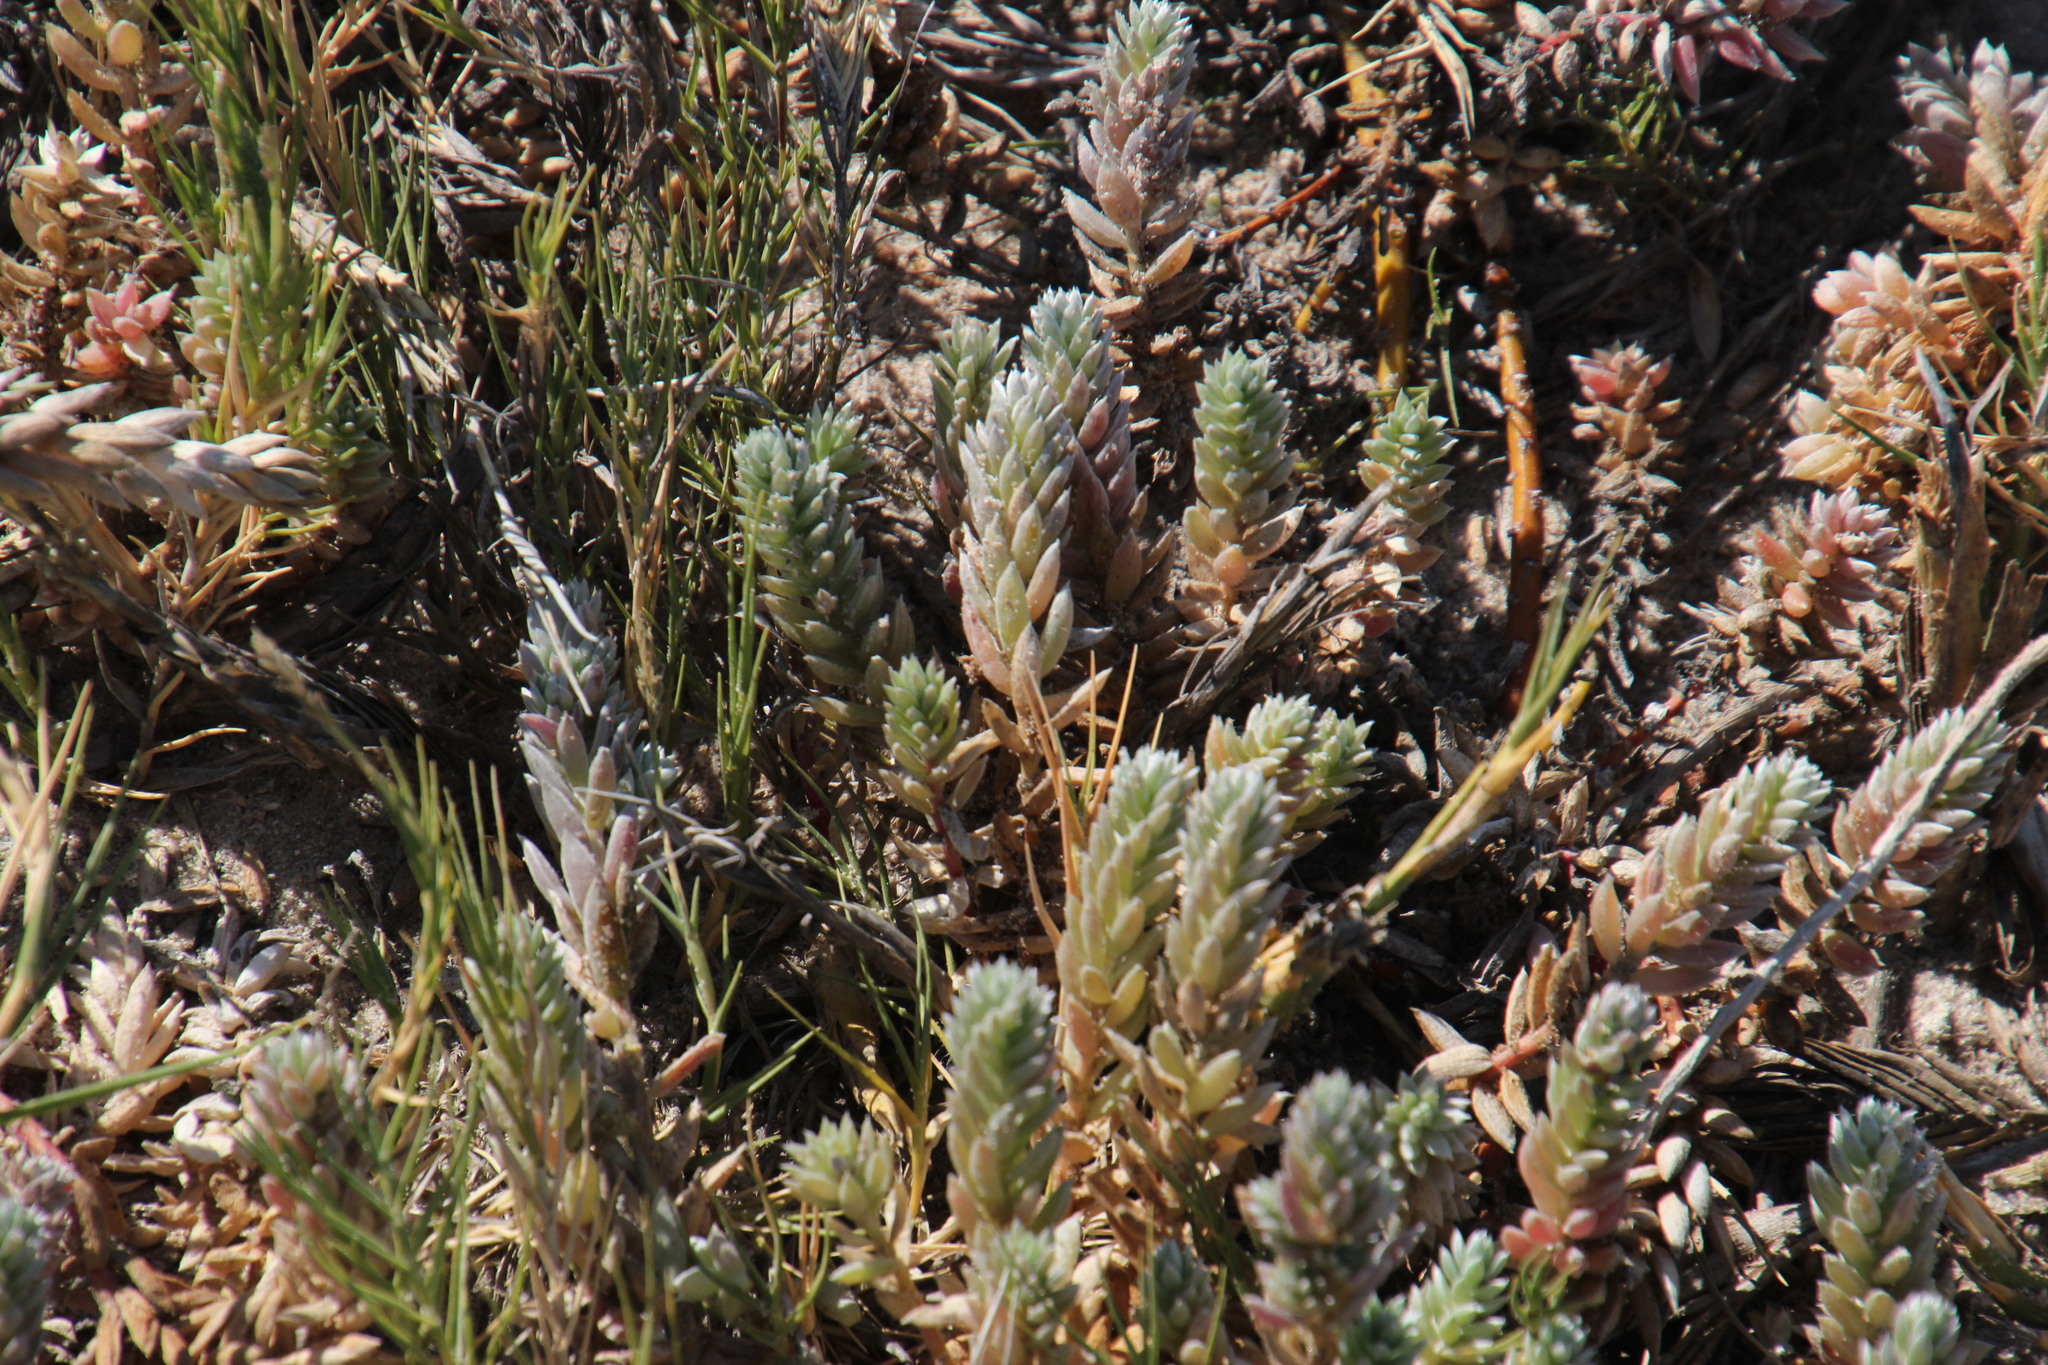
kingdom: Plantae
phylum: Tracheophyta
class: Magnoliopsida
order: Caryophyllales
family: Amaranthaceae
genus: Chenolea
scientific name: Chenolea diffusa
